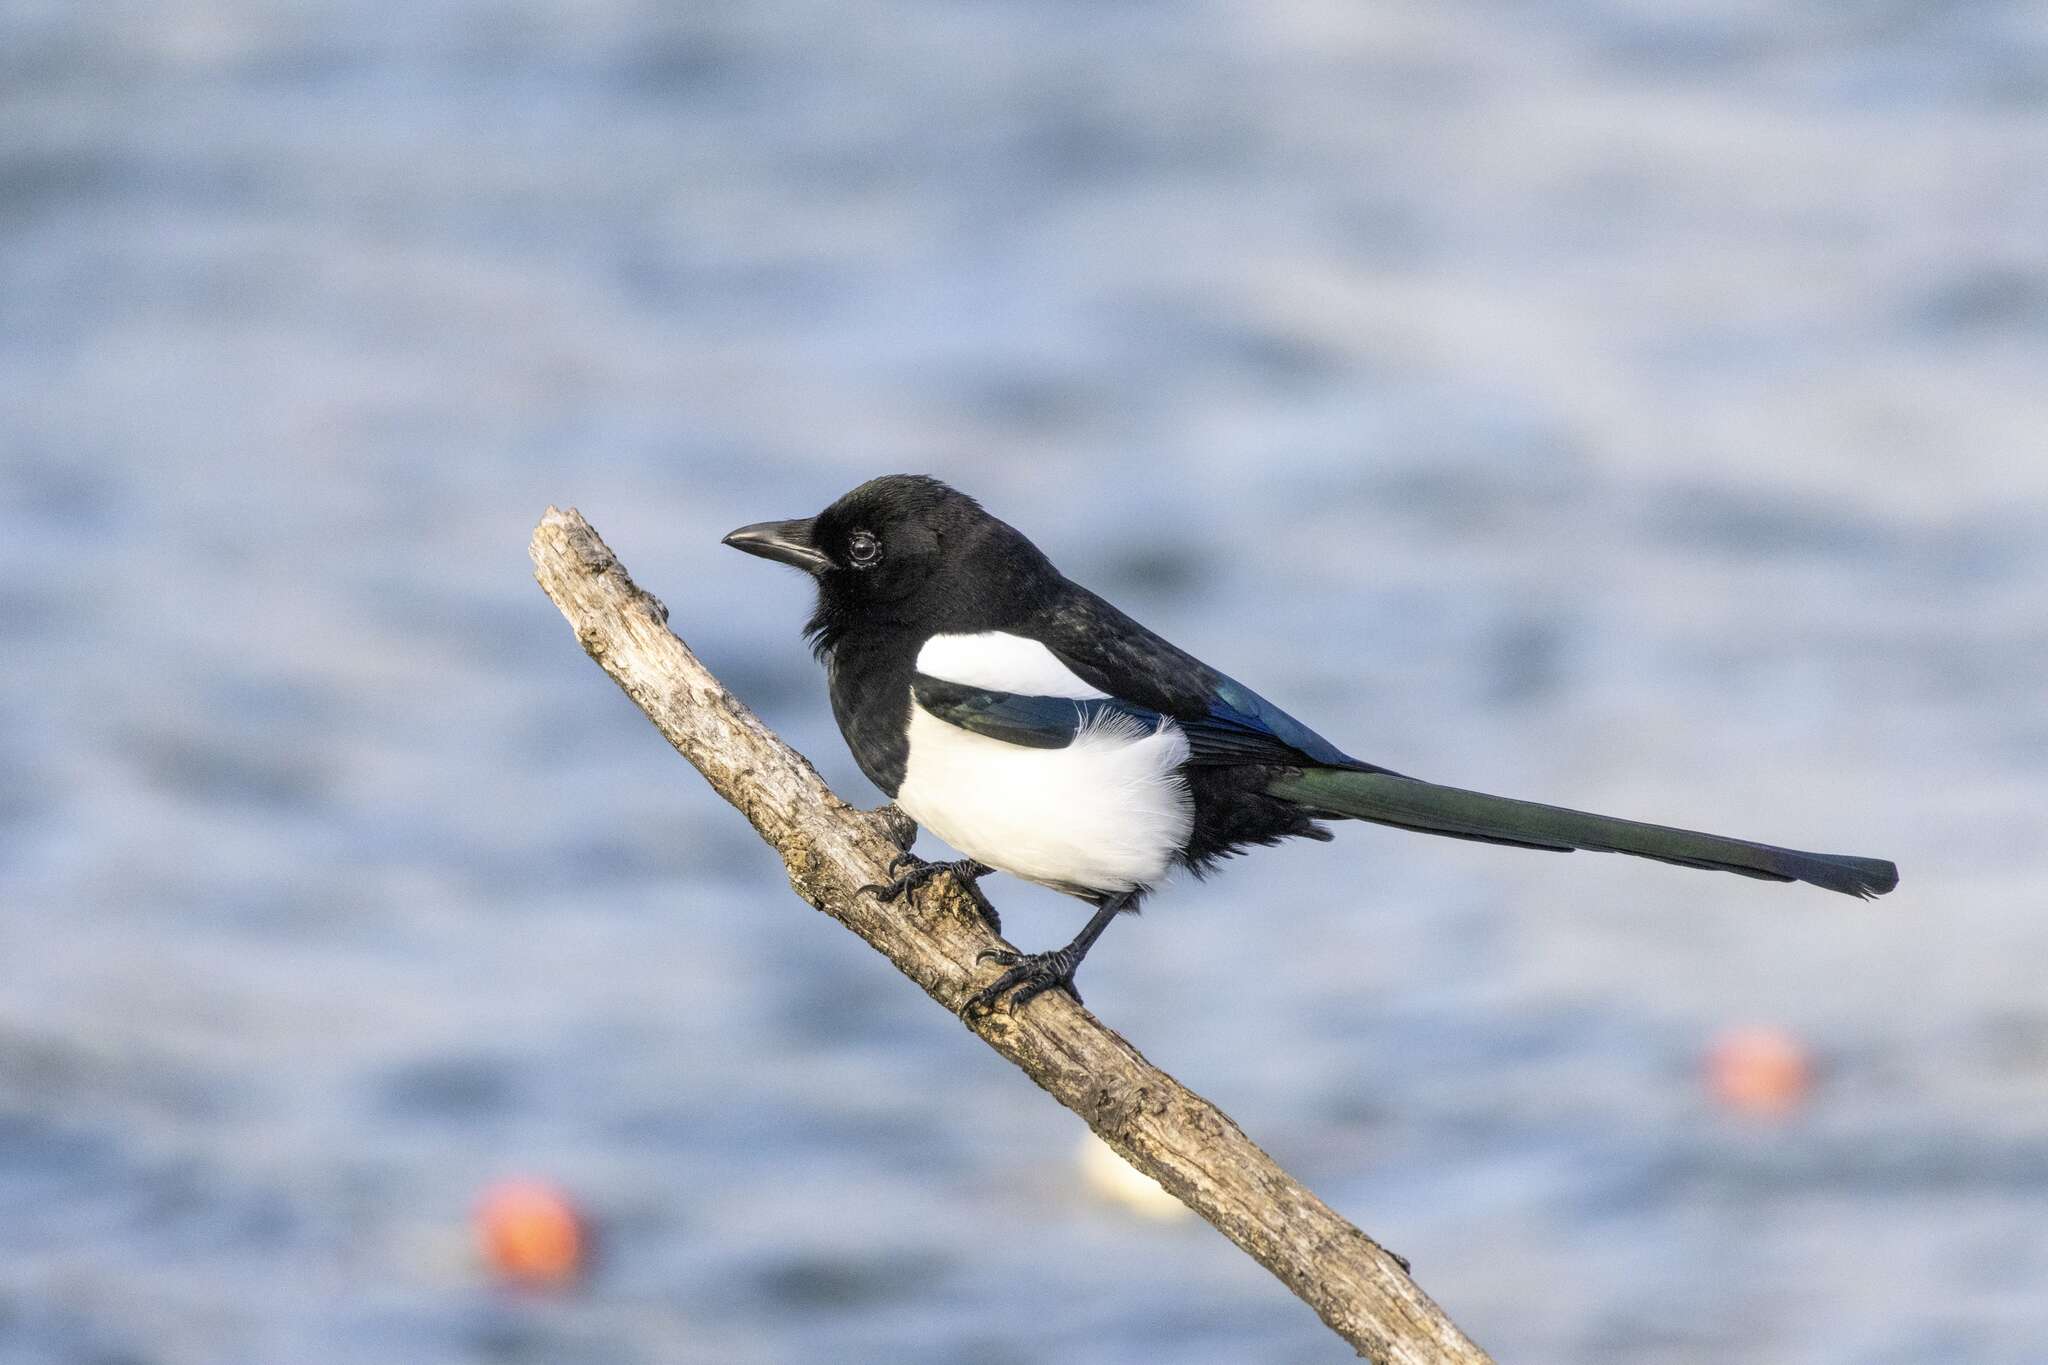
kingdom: Animalia
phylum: Chordata
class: Aves
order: Passeriformes
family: Corvidae
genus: Pica
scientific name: Pica pica
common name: Eurasian magpie
